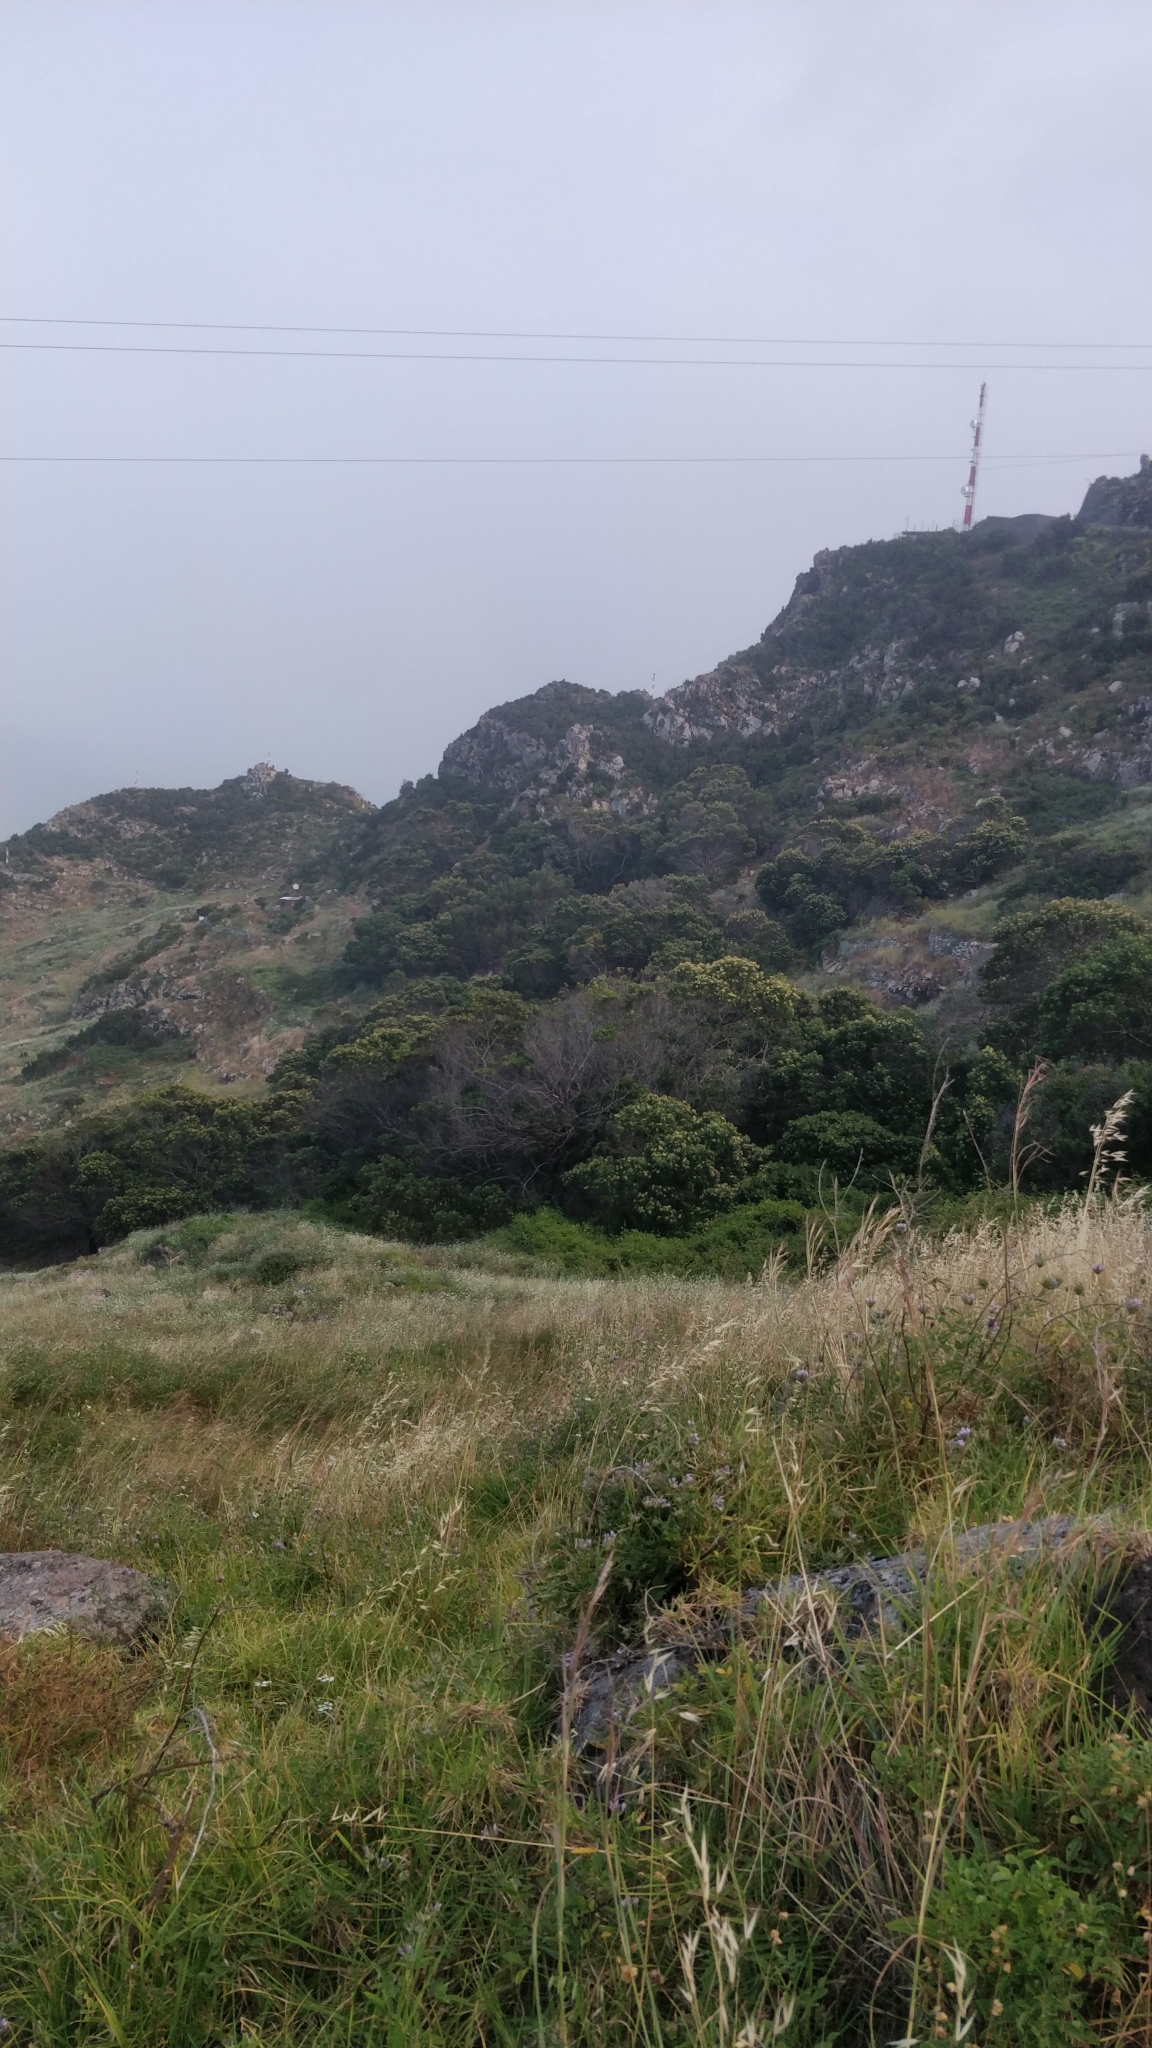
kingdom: Plantae
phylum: Tracheophyta
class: Magnoliopsida
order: Fabales
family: Fabaceae
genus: Acacia
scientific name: Acacia mearnsii
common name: Black wattle
